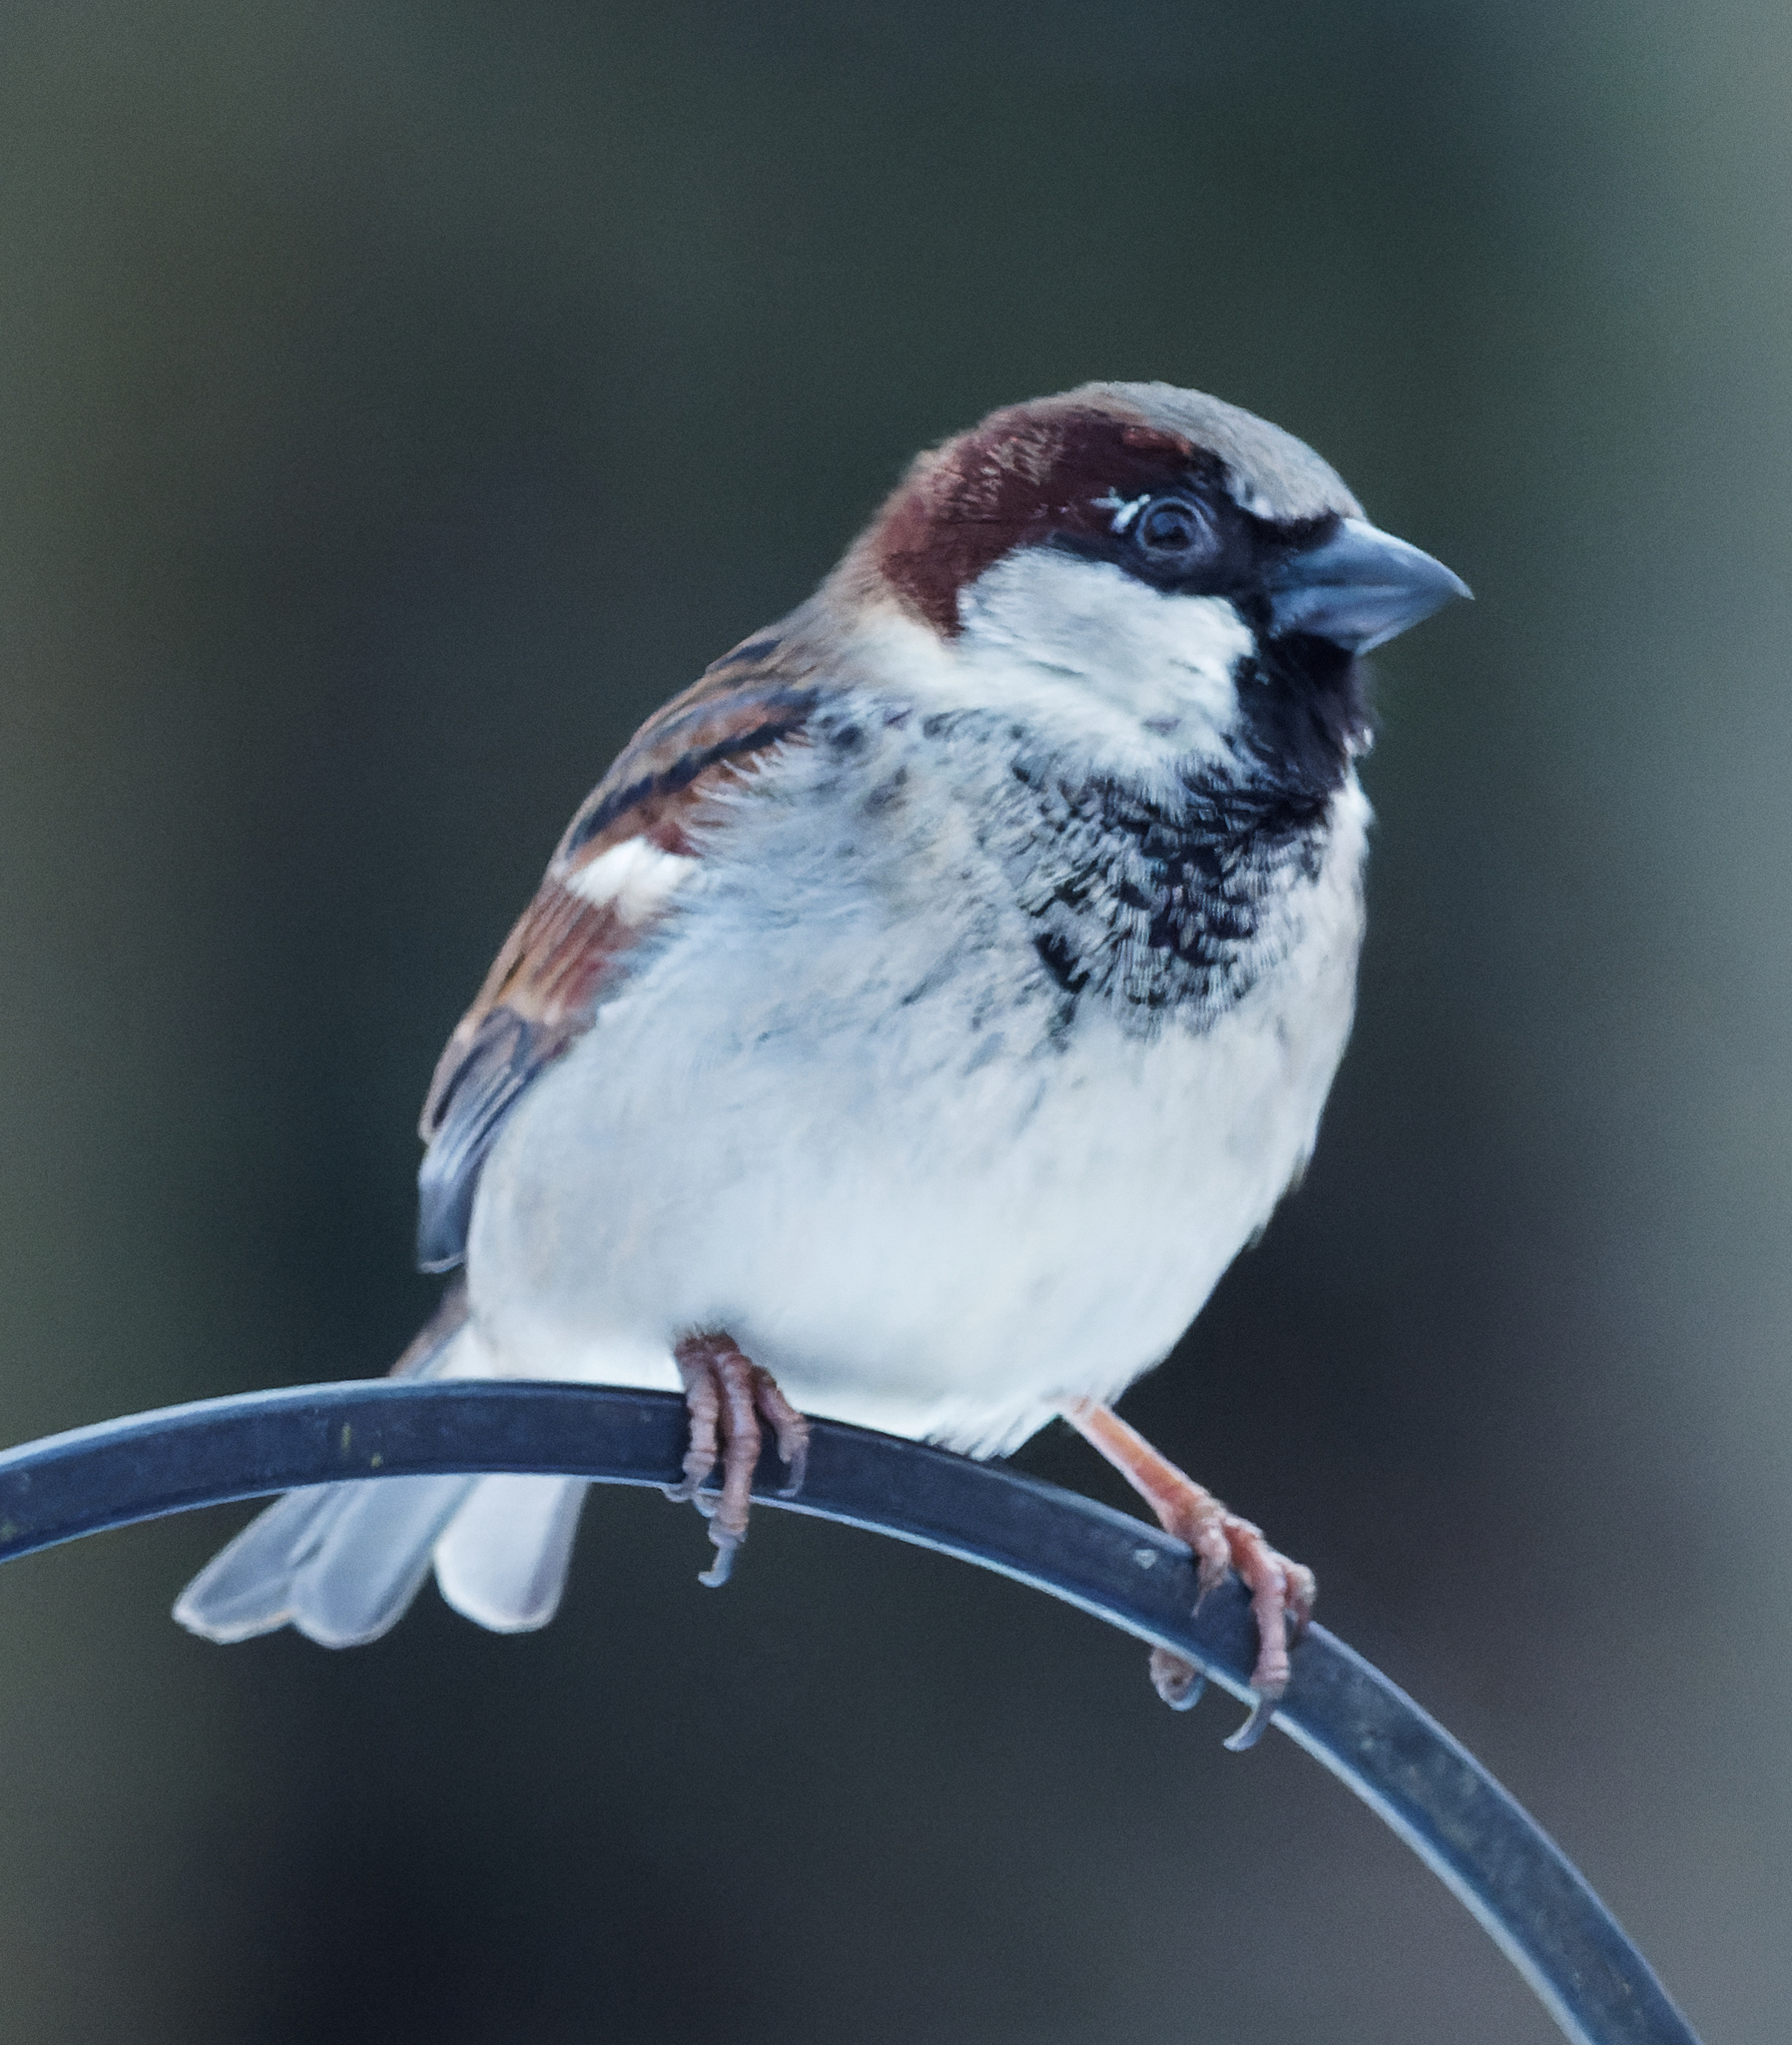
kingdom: Animalia
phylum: Chordata
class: Aves
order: Passeriformes
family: Passeridae
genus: Passer
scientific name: Passer domesticus
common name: House sparrow
